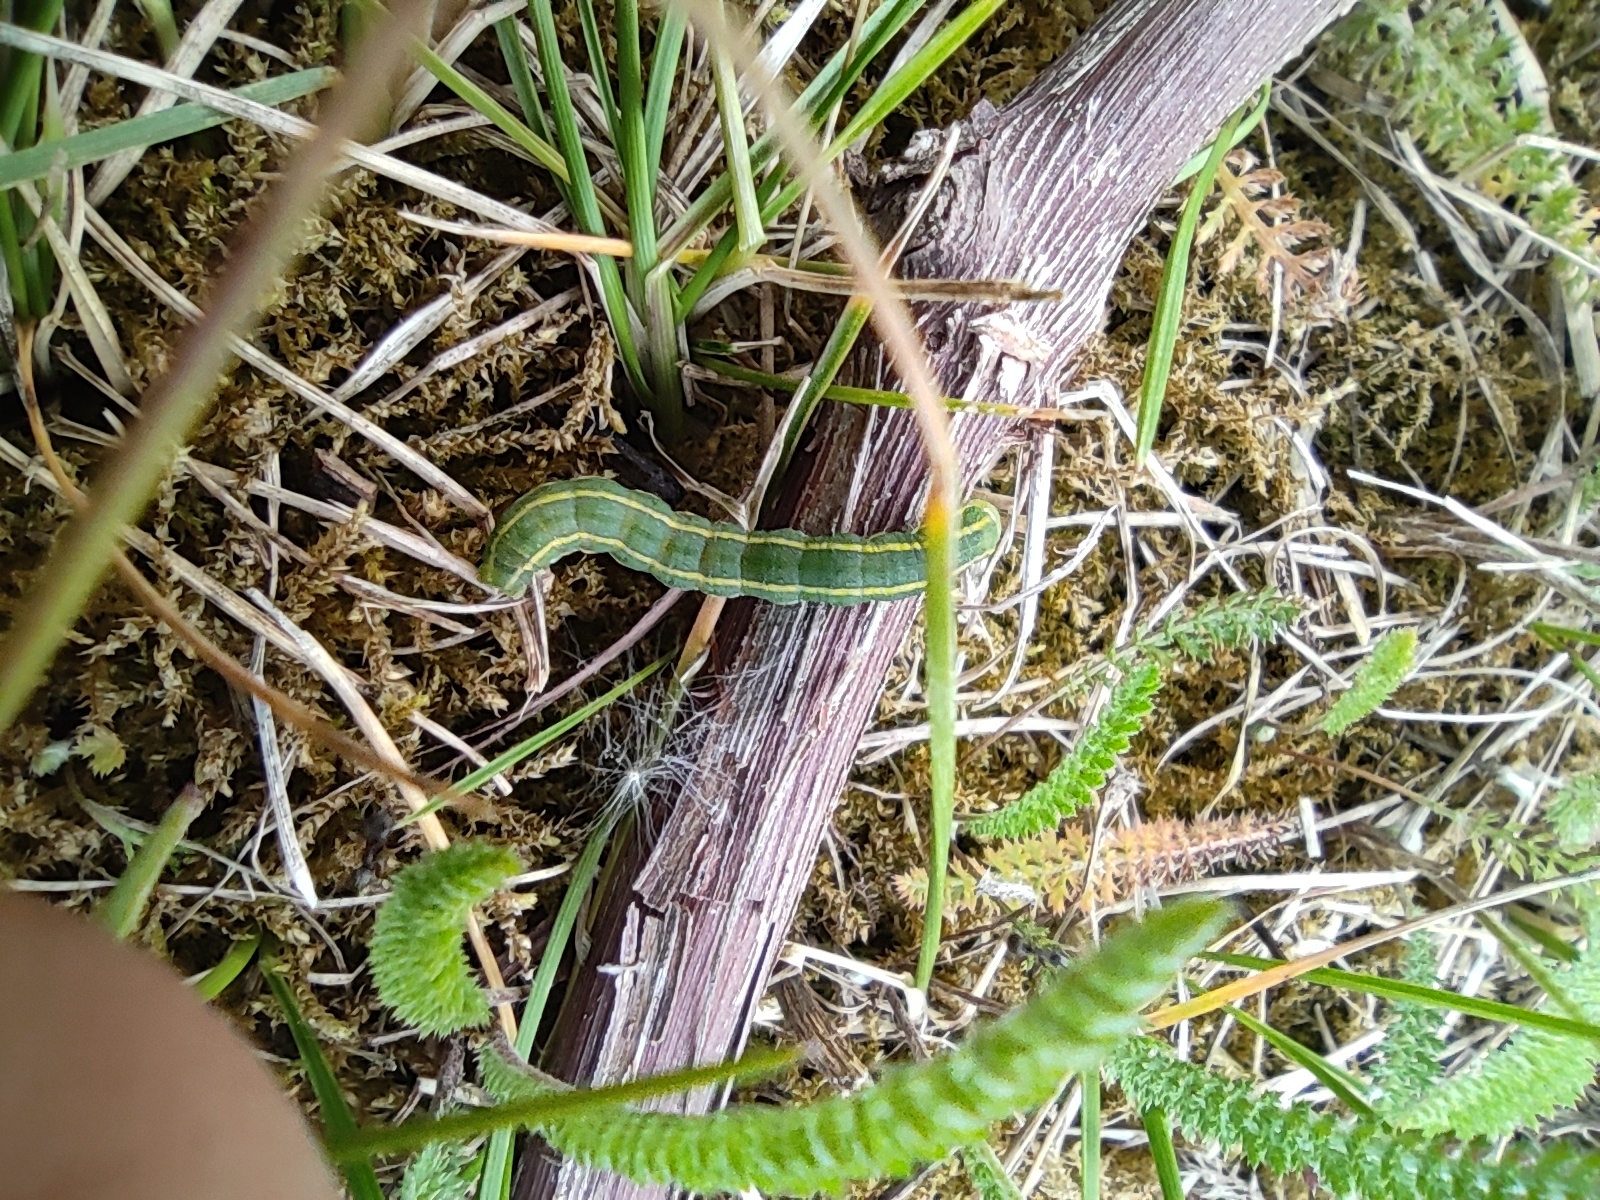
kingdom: Animalia
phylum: Arthropoda
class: Insecta
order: Lepidoptera
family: Noctuidae
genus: Xylena
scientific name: Xylena exsoleta
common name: Sword-grass
